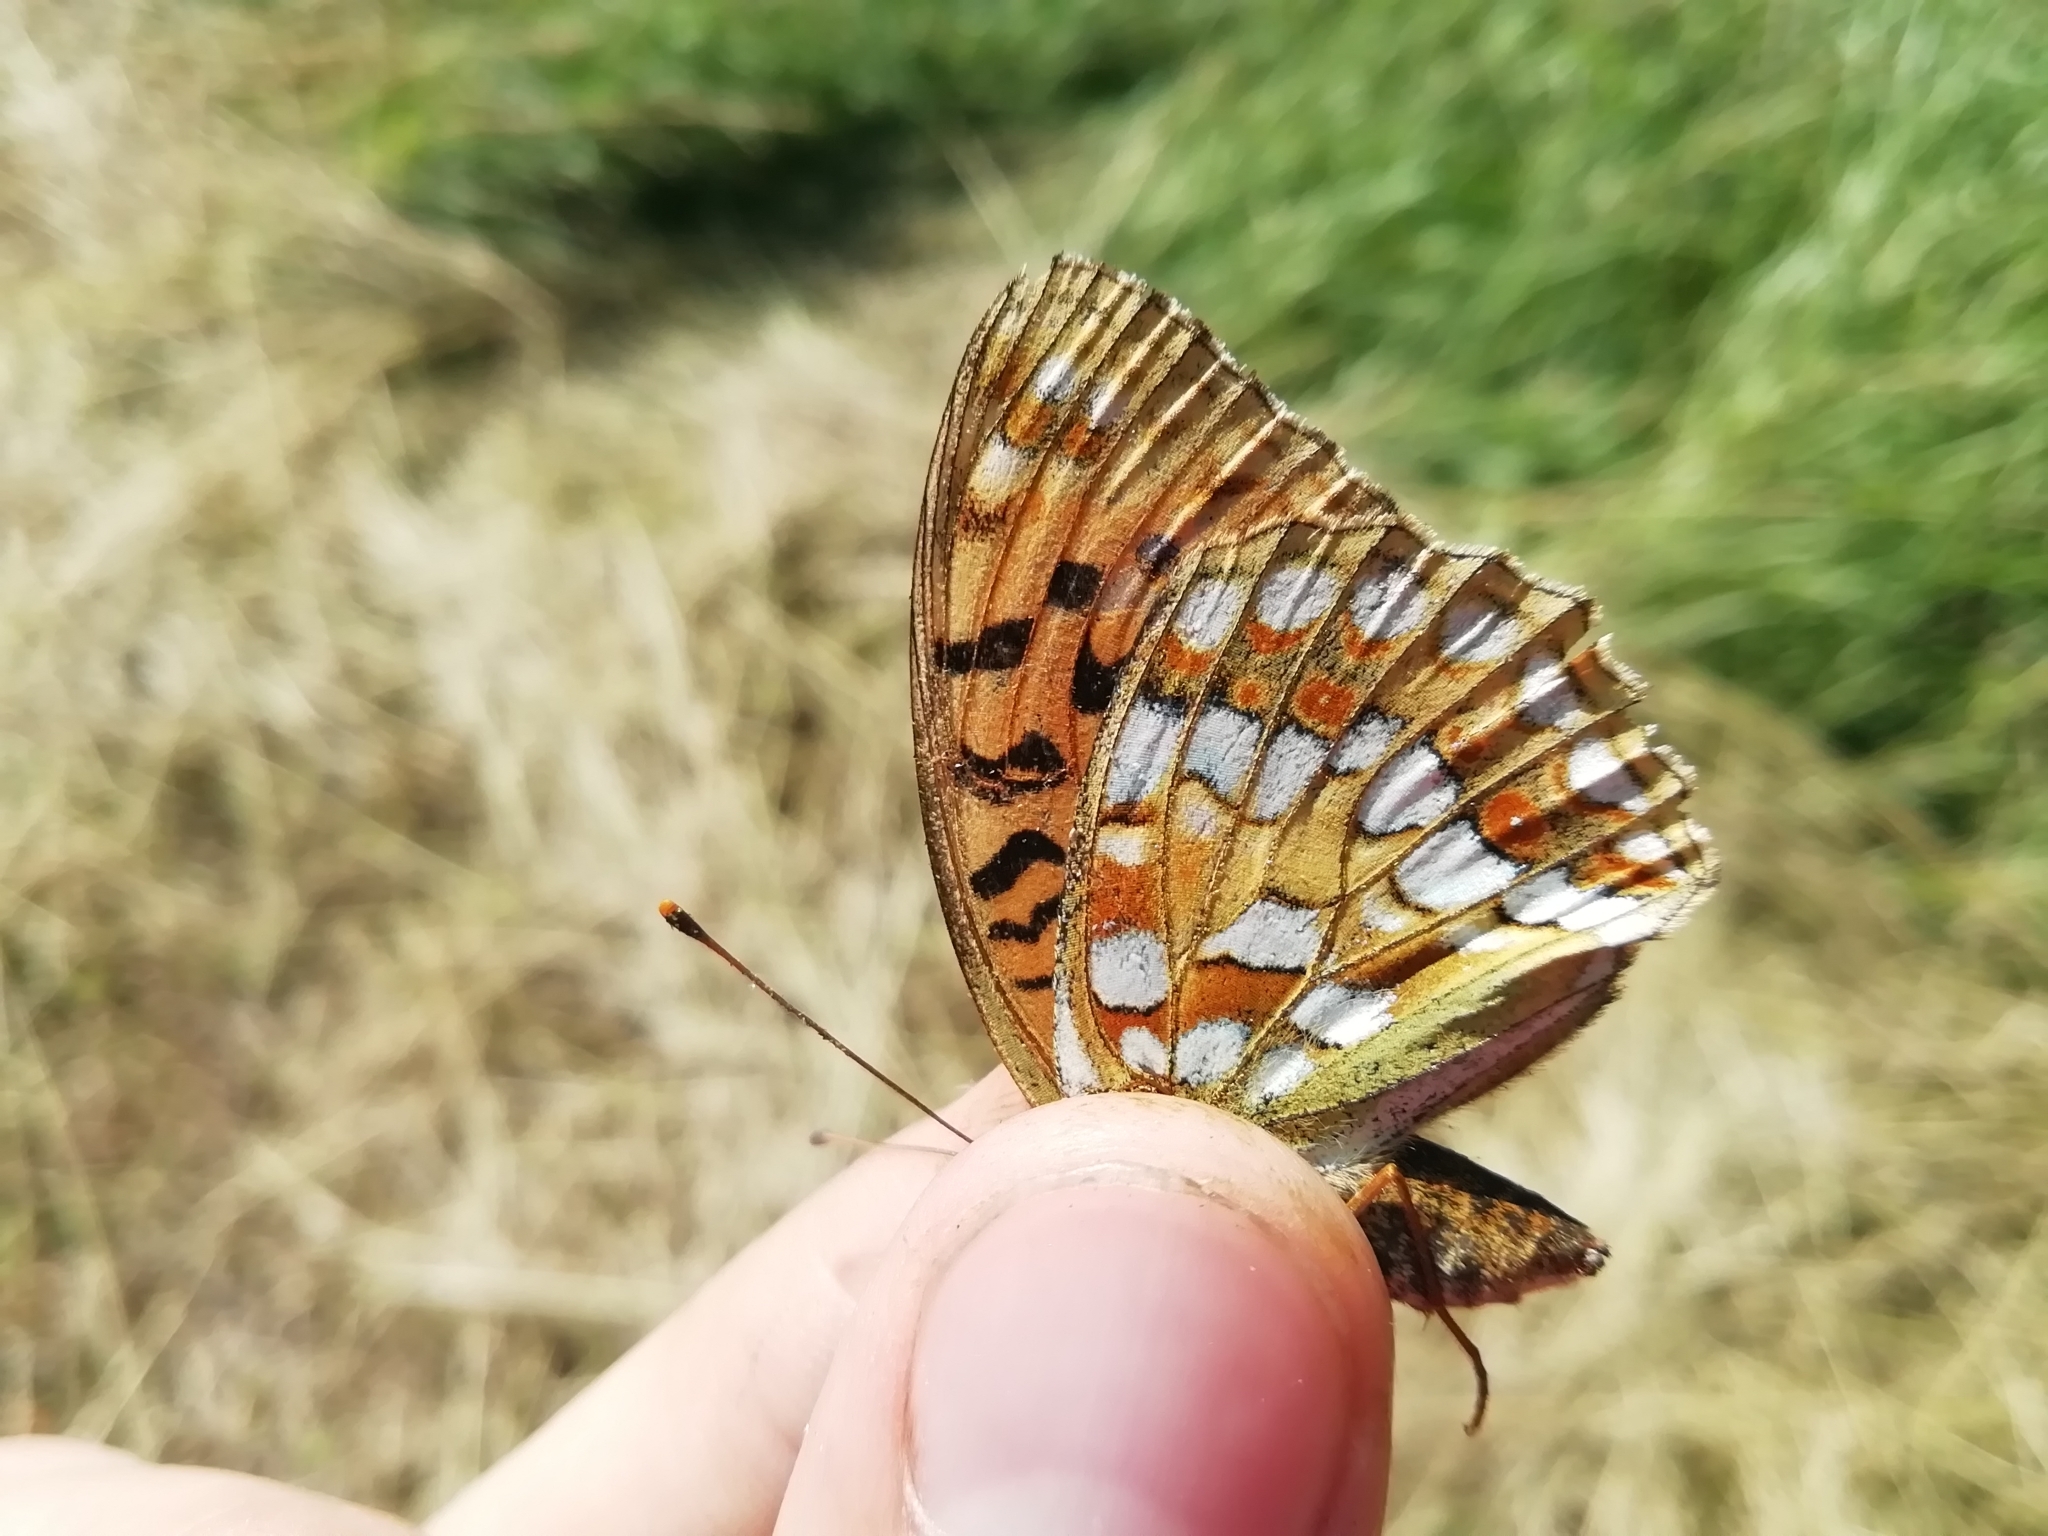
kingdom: Animalia
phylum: Arthropoda
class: Insecta
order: Lepidoptera
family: Nymphalidae
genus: Fabriciana
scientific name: Fabriciana adippe
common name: High brown fritillary
